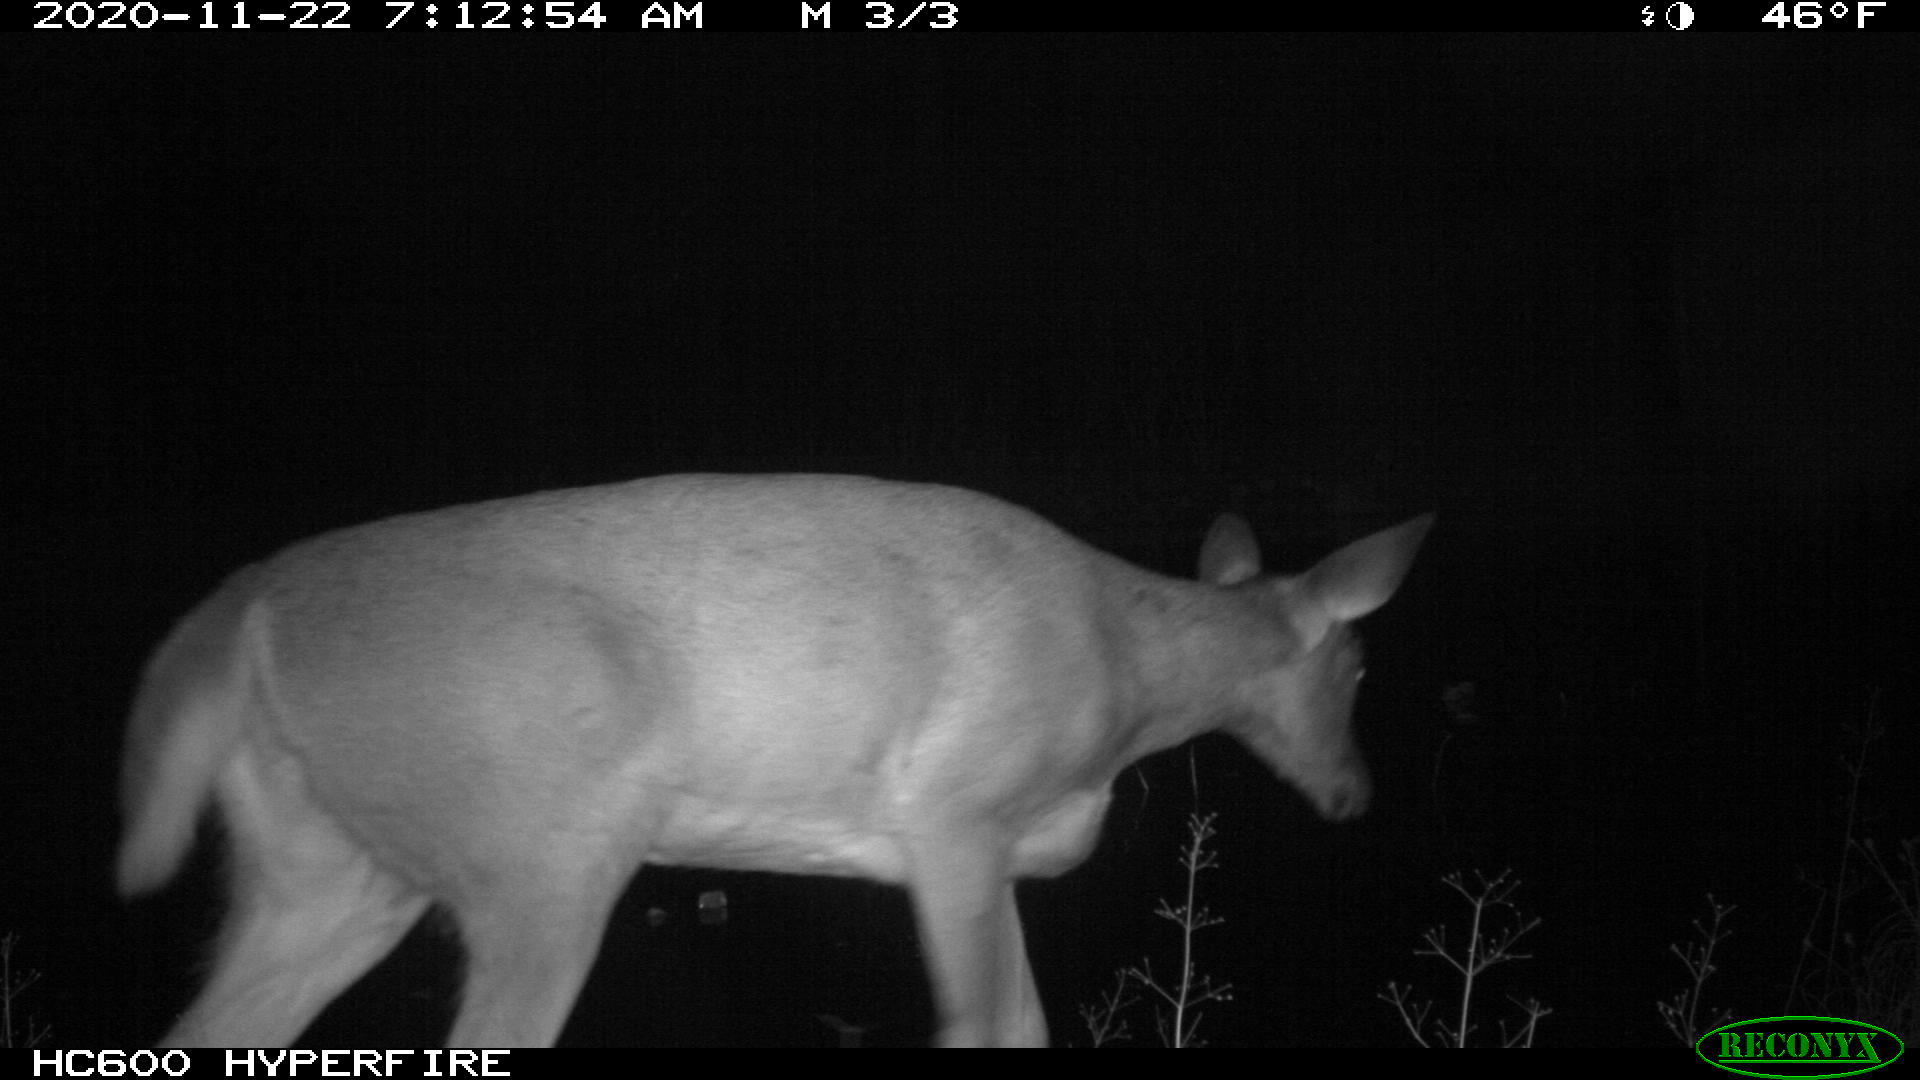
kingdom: Animalia
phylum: Chordata
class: Mammalia
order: Artiodactyla
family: Cervidae
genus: Odocoileus
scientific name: Odocoileus virginianus
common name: White-tailed deer
